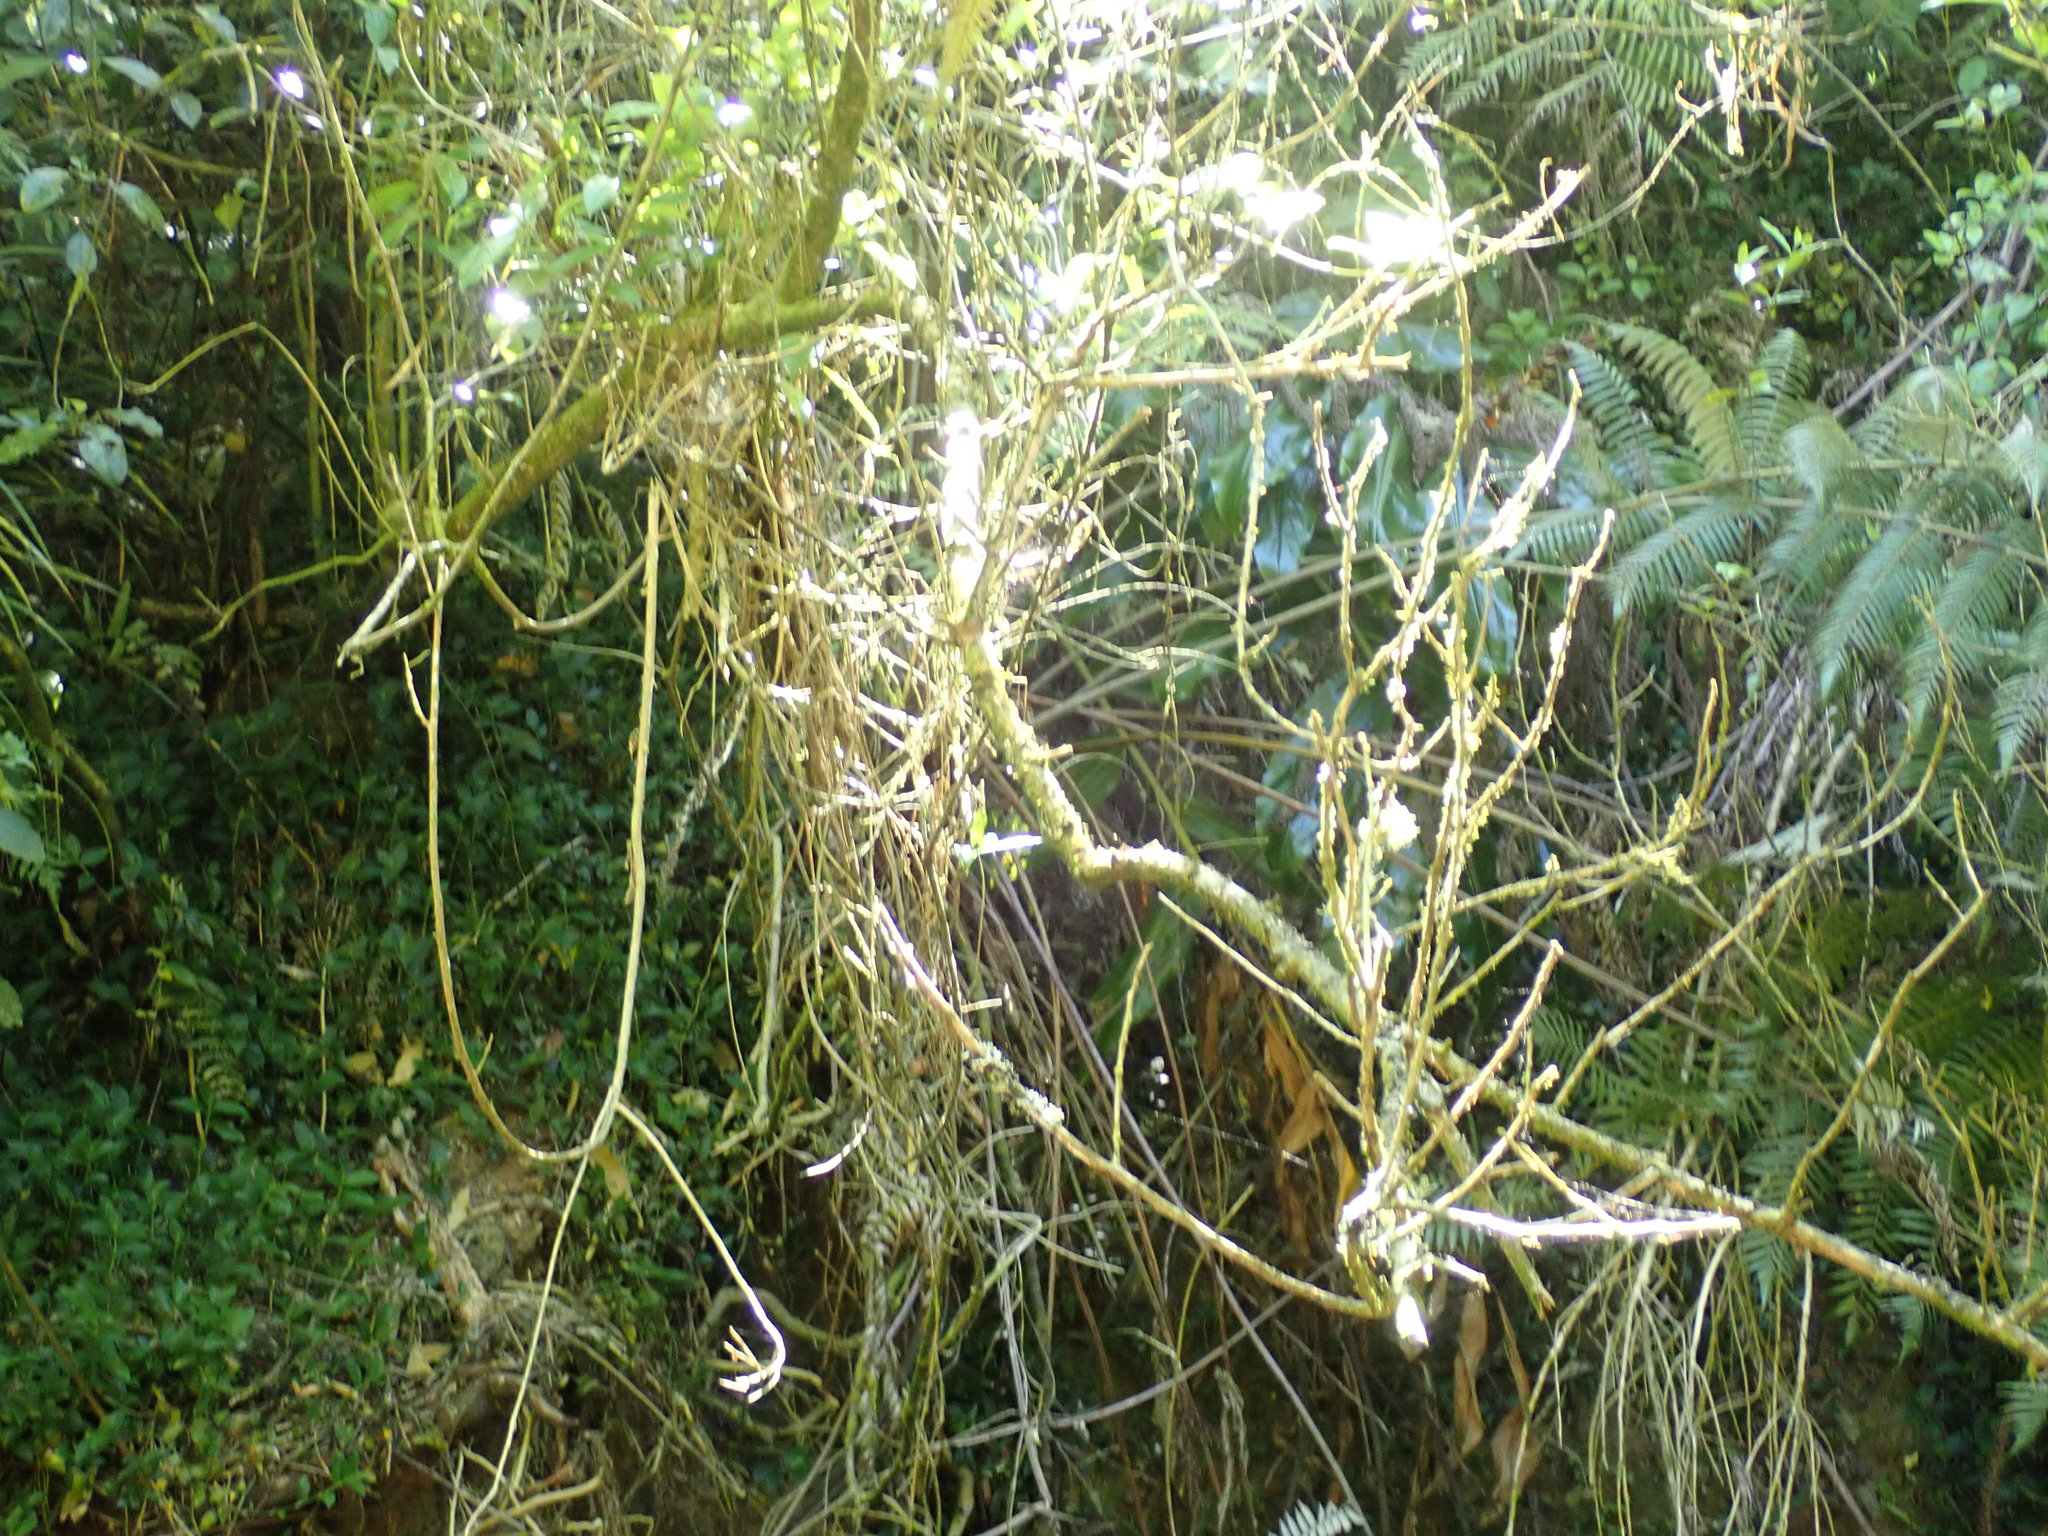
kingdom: Plantae
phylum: Tracheophyta
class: Magnoliopsida
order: Malpighiales
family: Violaceae
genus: Melicytus
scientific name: Melicytus ramiflorus
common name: Mahoe
